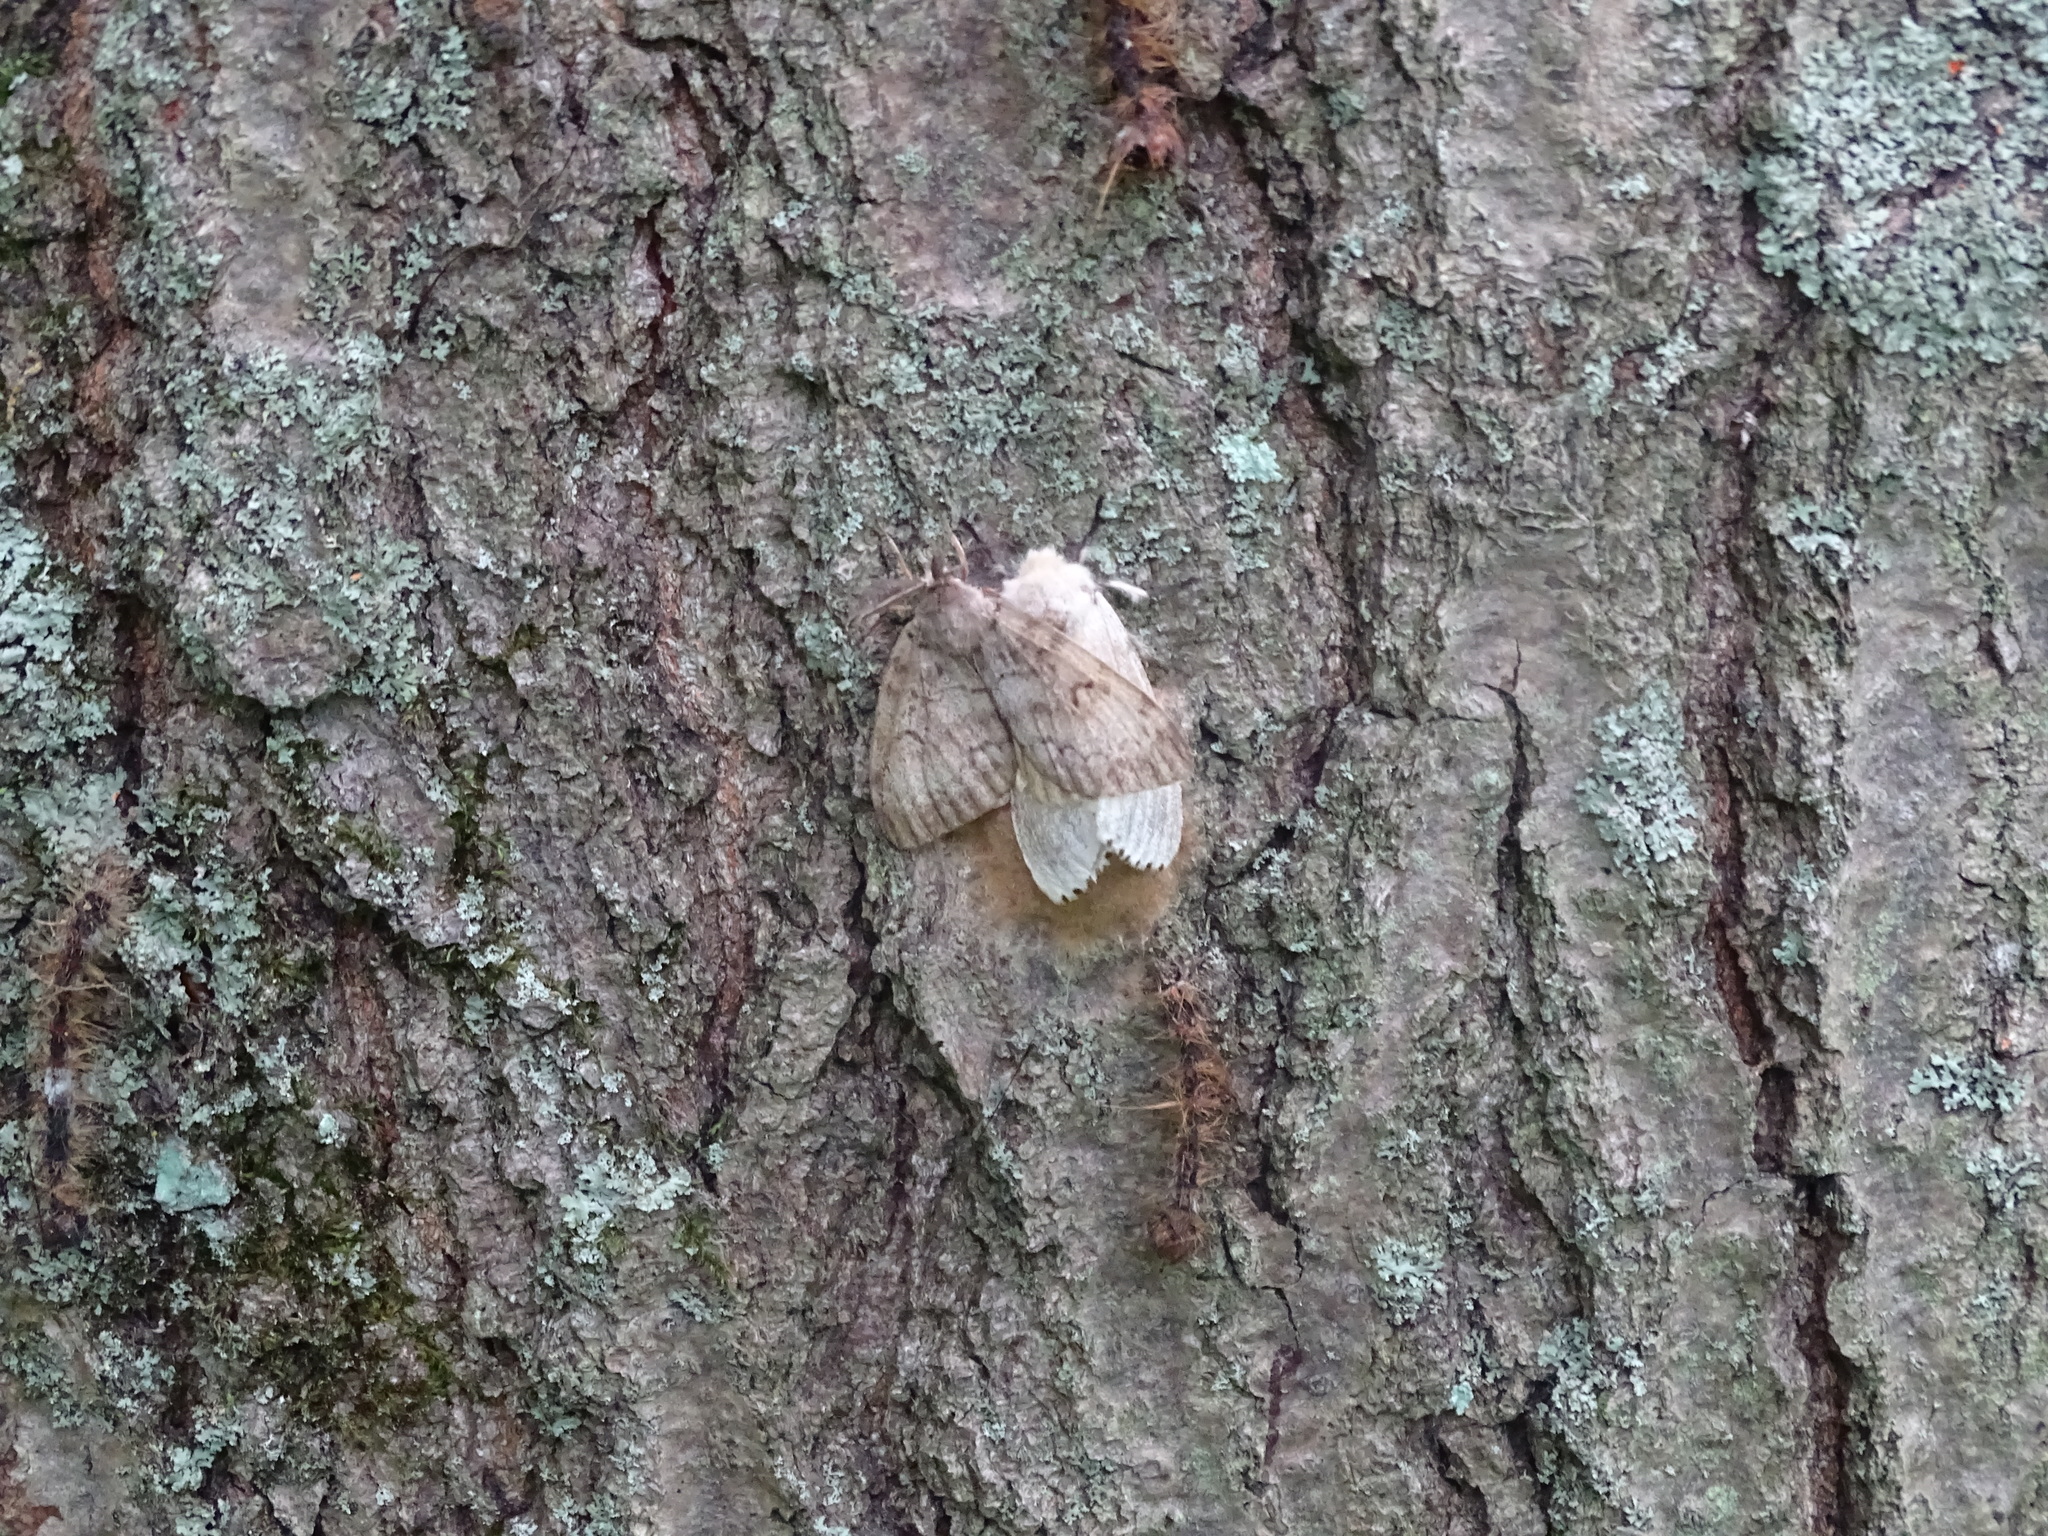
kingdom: Animalia
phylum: Arthropoda
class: Insecta
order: Lepidoptera
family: Erebidae
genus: Lymantria
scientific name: Lymantria dispar
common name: Gypsy moth
